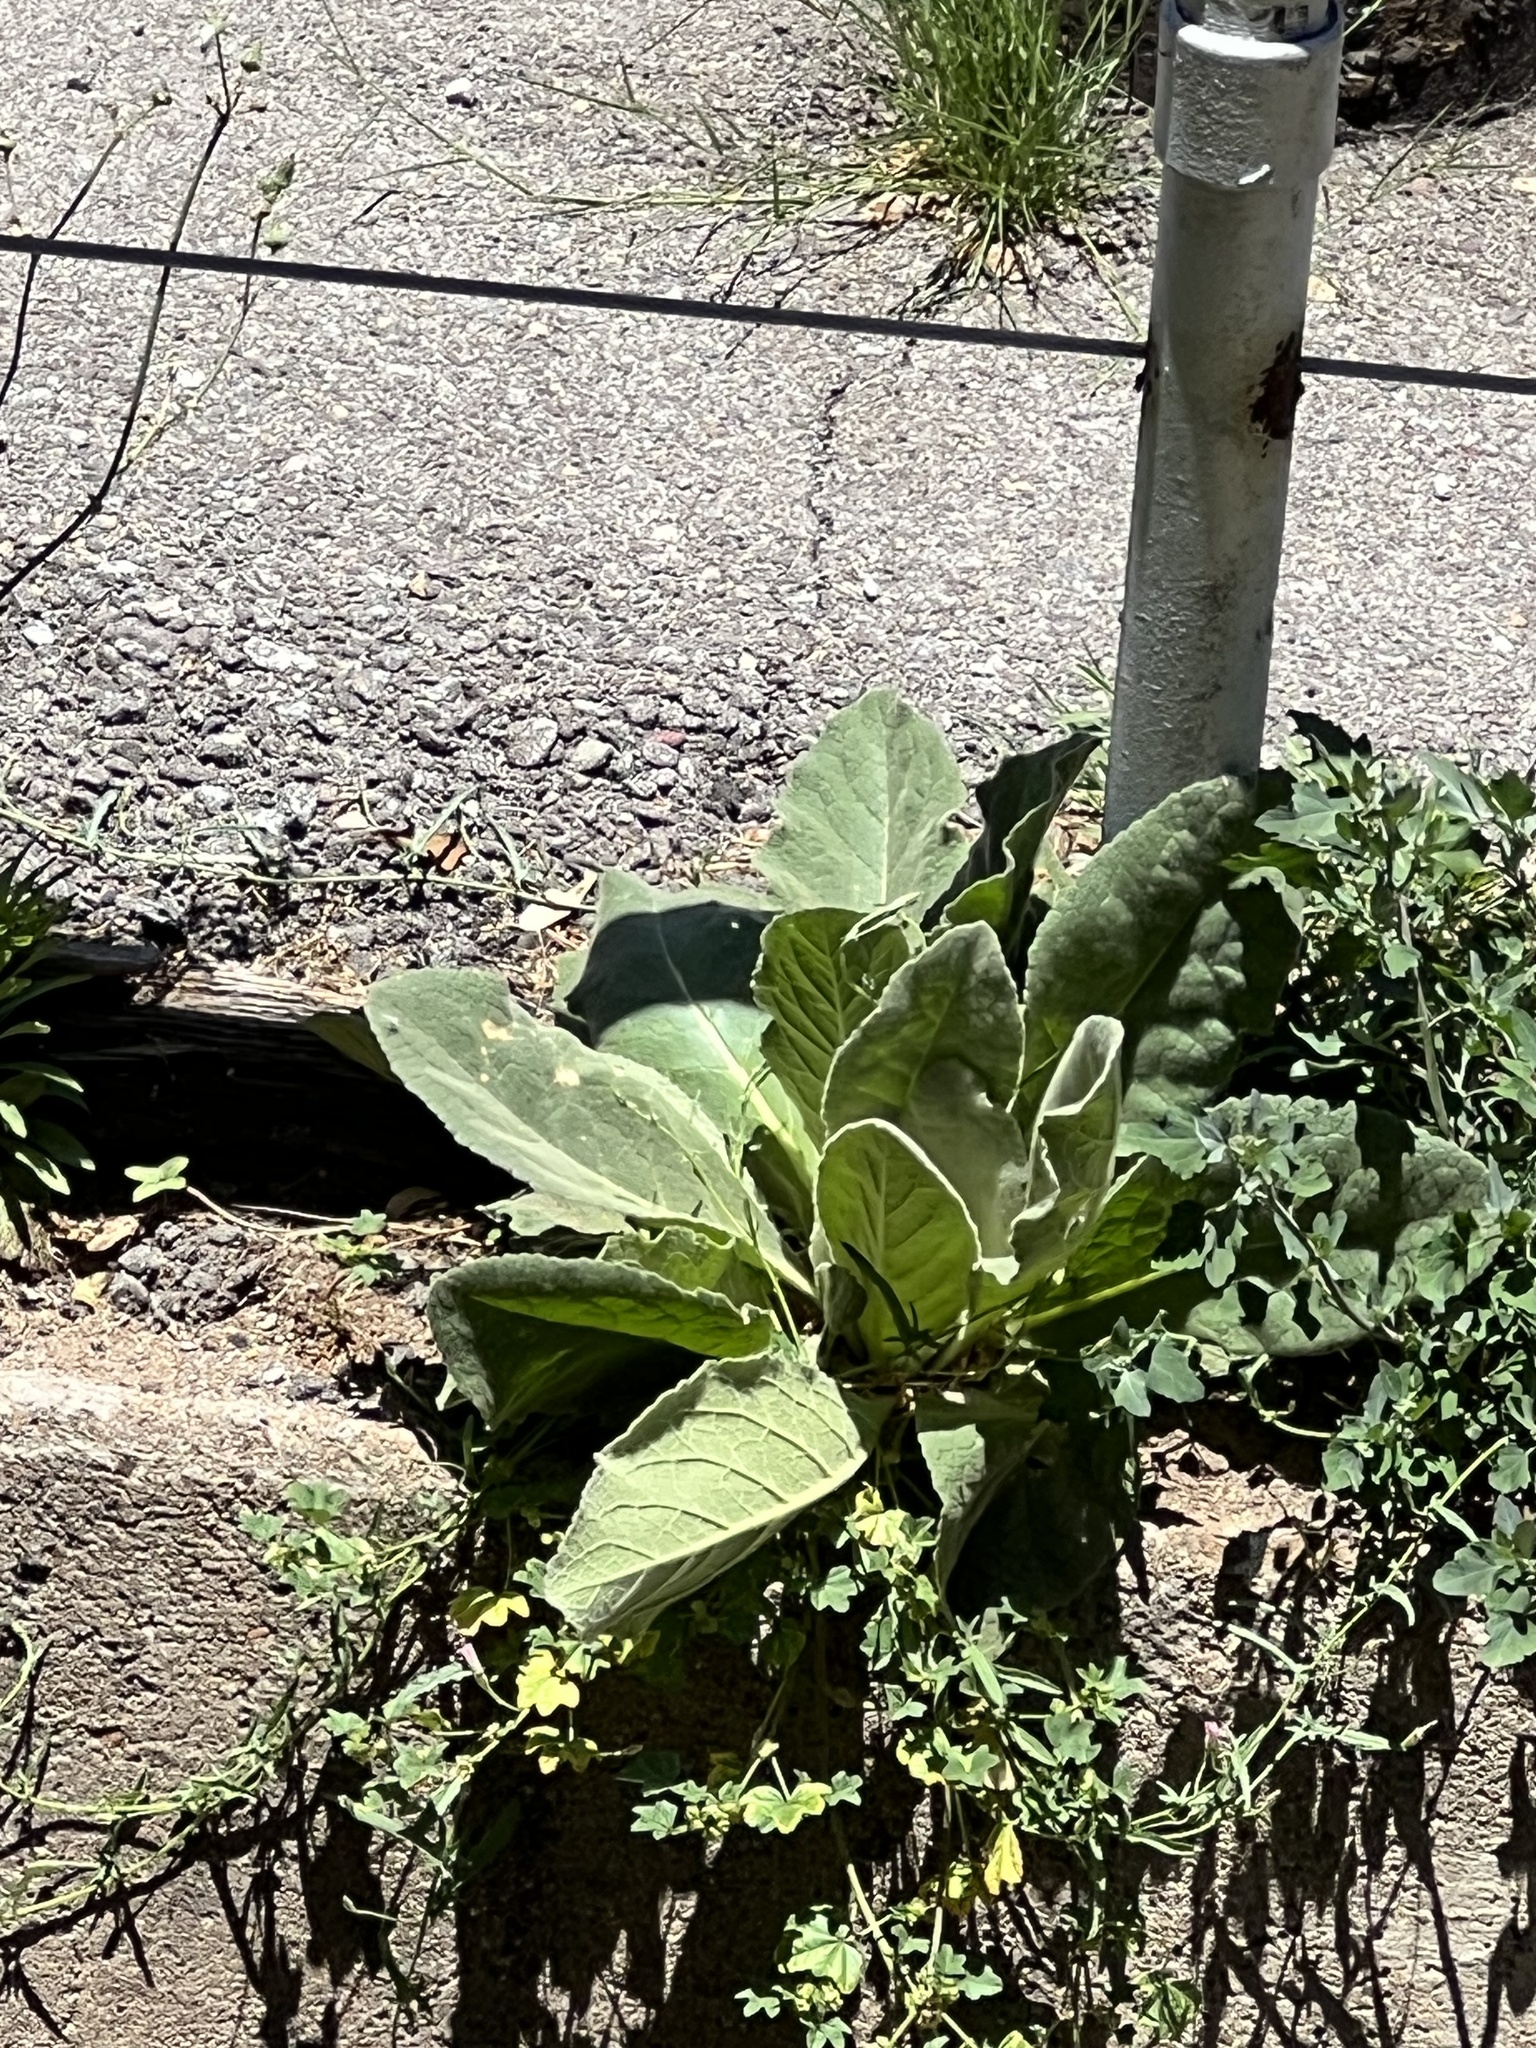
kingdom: Plantae
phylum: Tracheophyta
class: Magnoliopsida
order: Lamiales
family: Scrophulariaceae
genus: Verbascum
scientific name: Verbascum thapsus
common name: Common mullein
